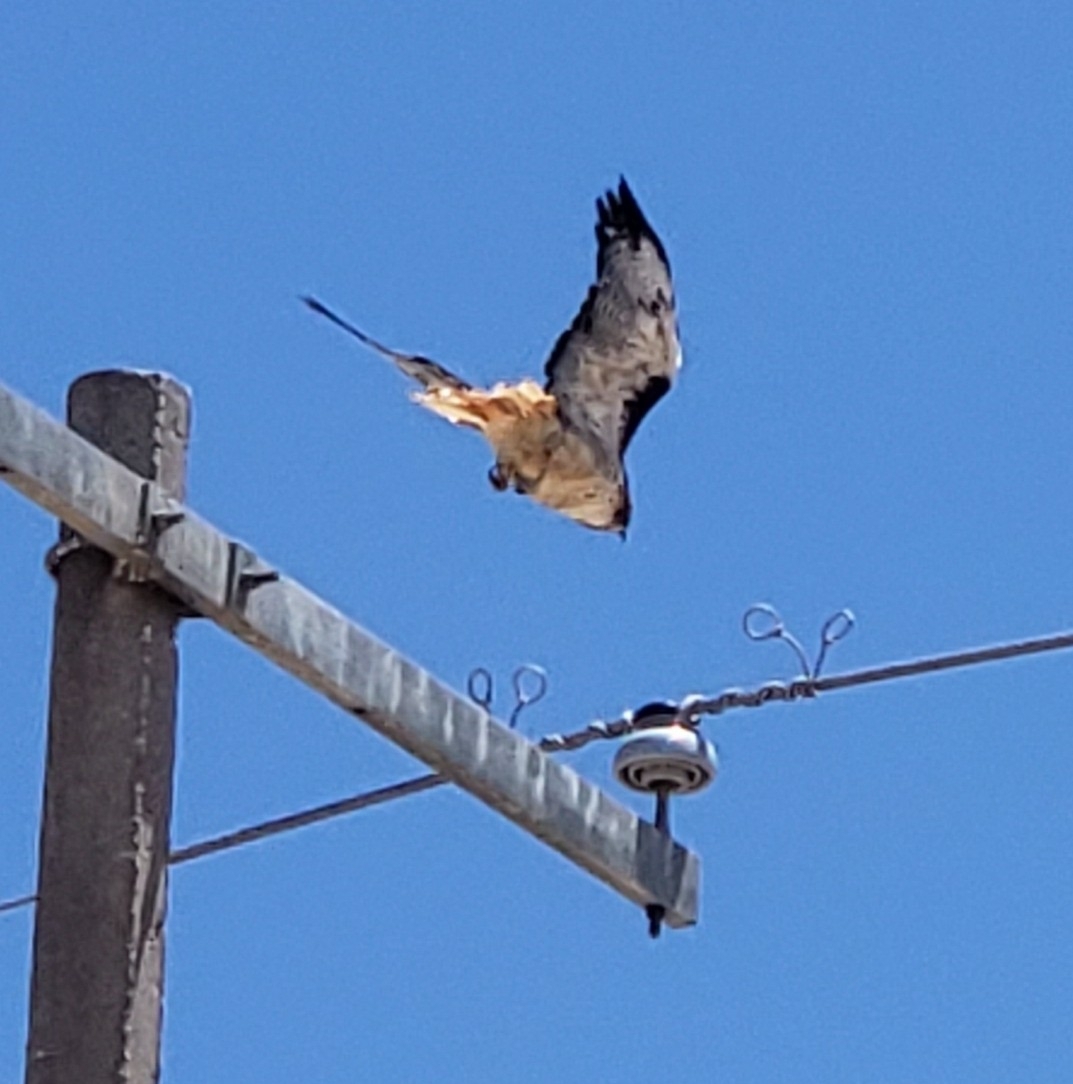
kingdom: Animalia
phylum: Chordata
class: Aves
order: Accipitriformes
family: Accipitridae
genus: Buteo
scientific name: Buteo jamaicensis
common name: Red-tailed hawk
